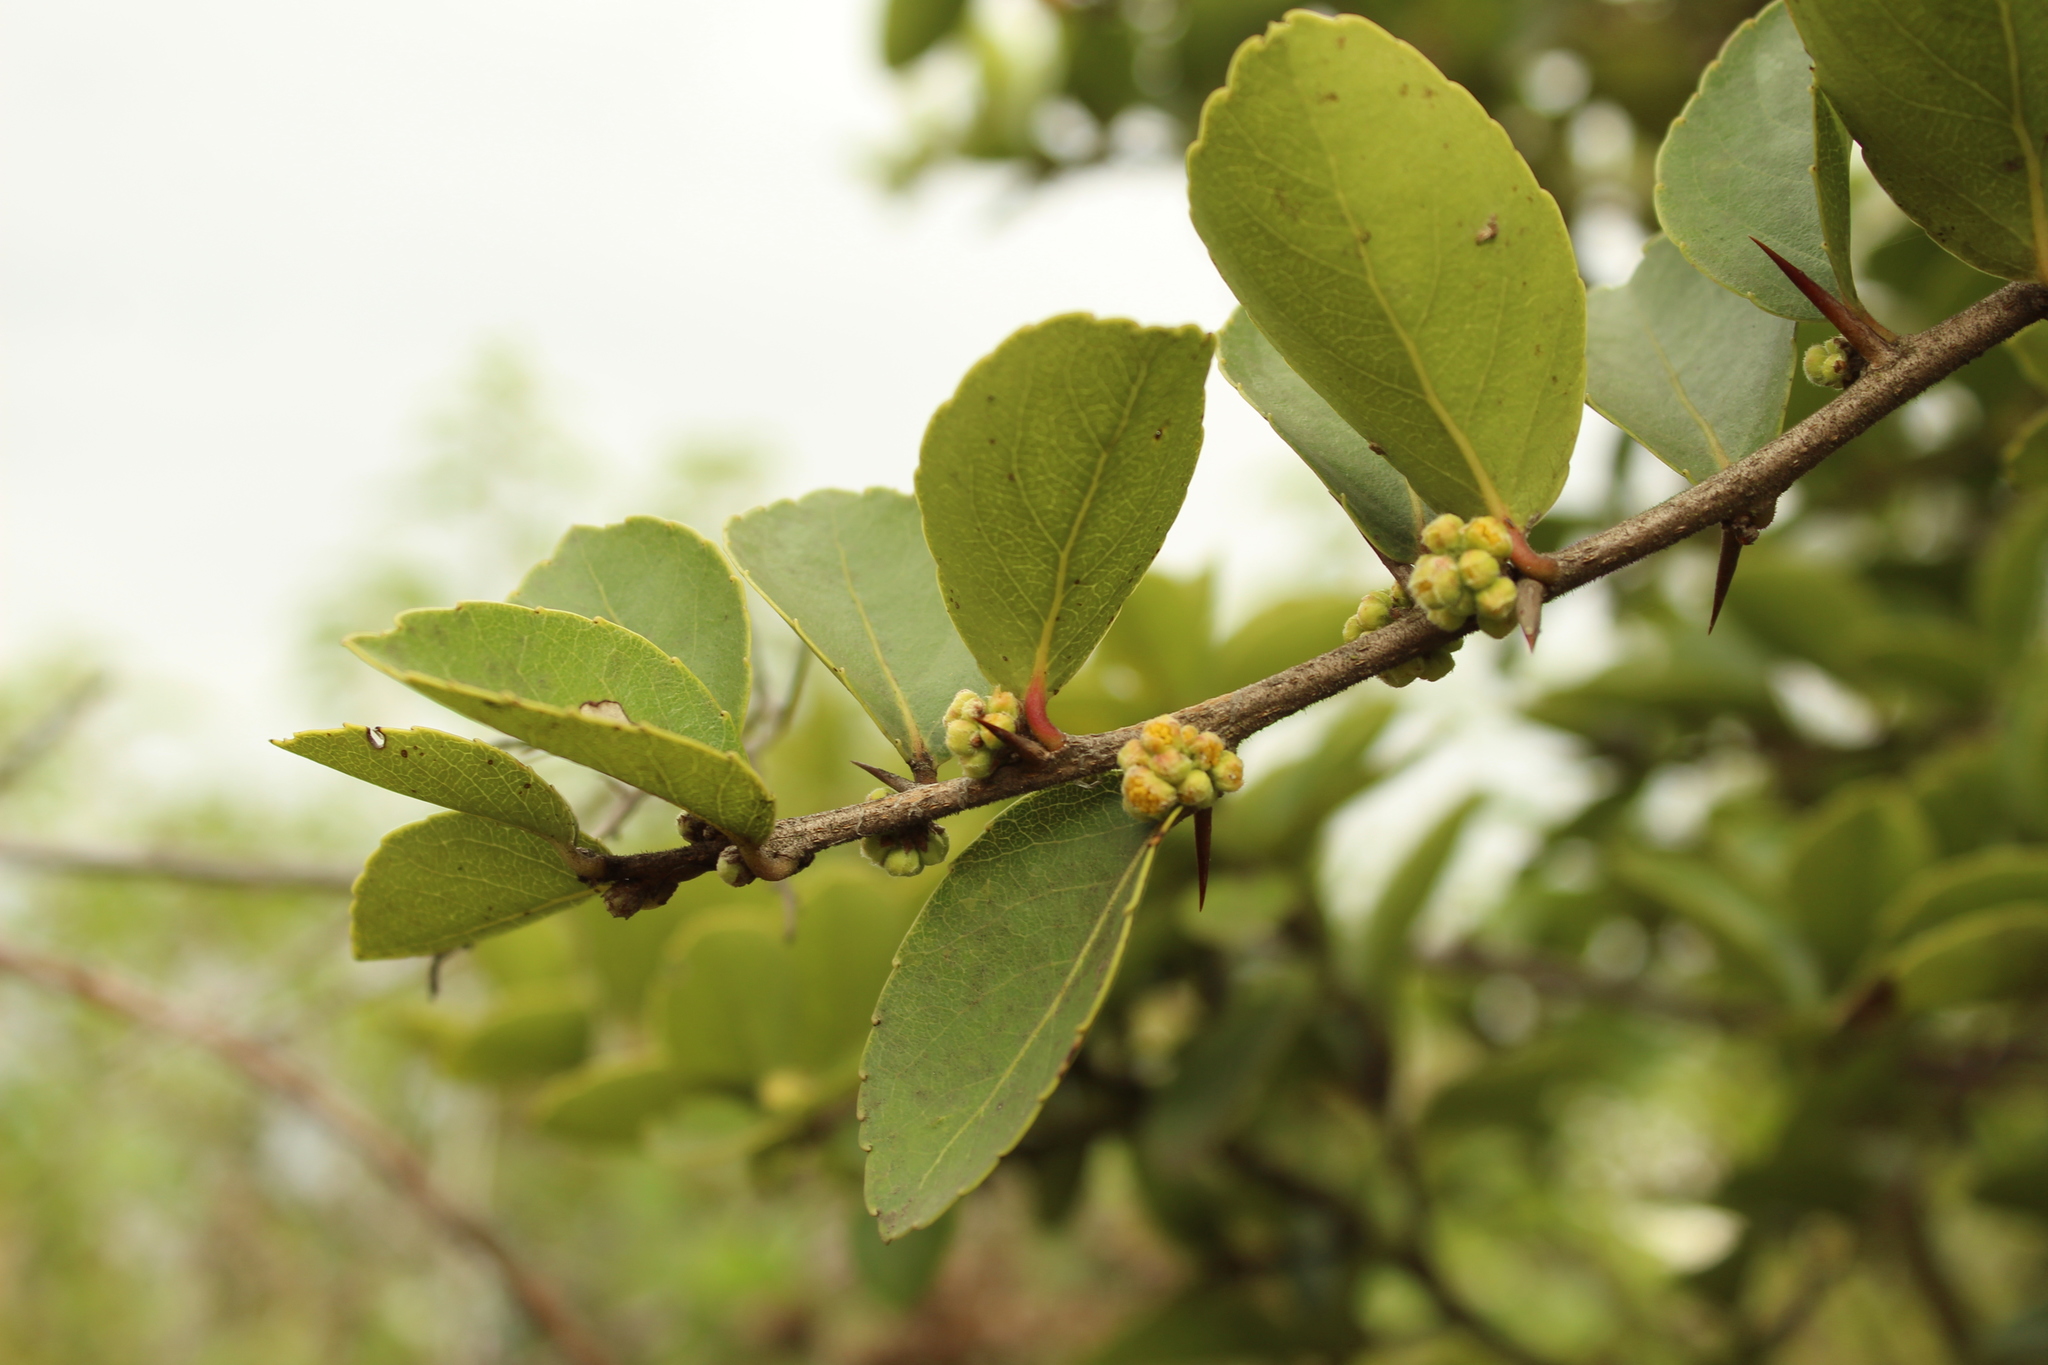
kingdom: Plantae
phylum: Tracheophyta
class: Magnoliopsida
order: Malpighiales
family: Salicaceae
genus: Xylosma
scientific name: Xylosma spiculifera
